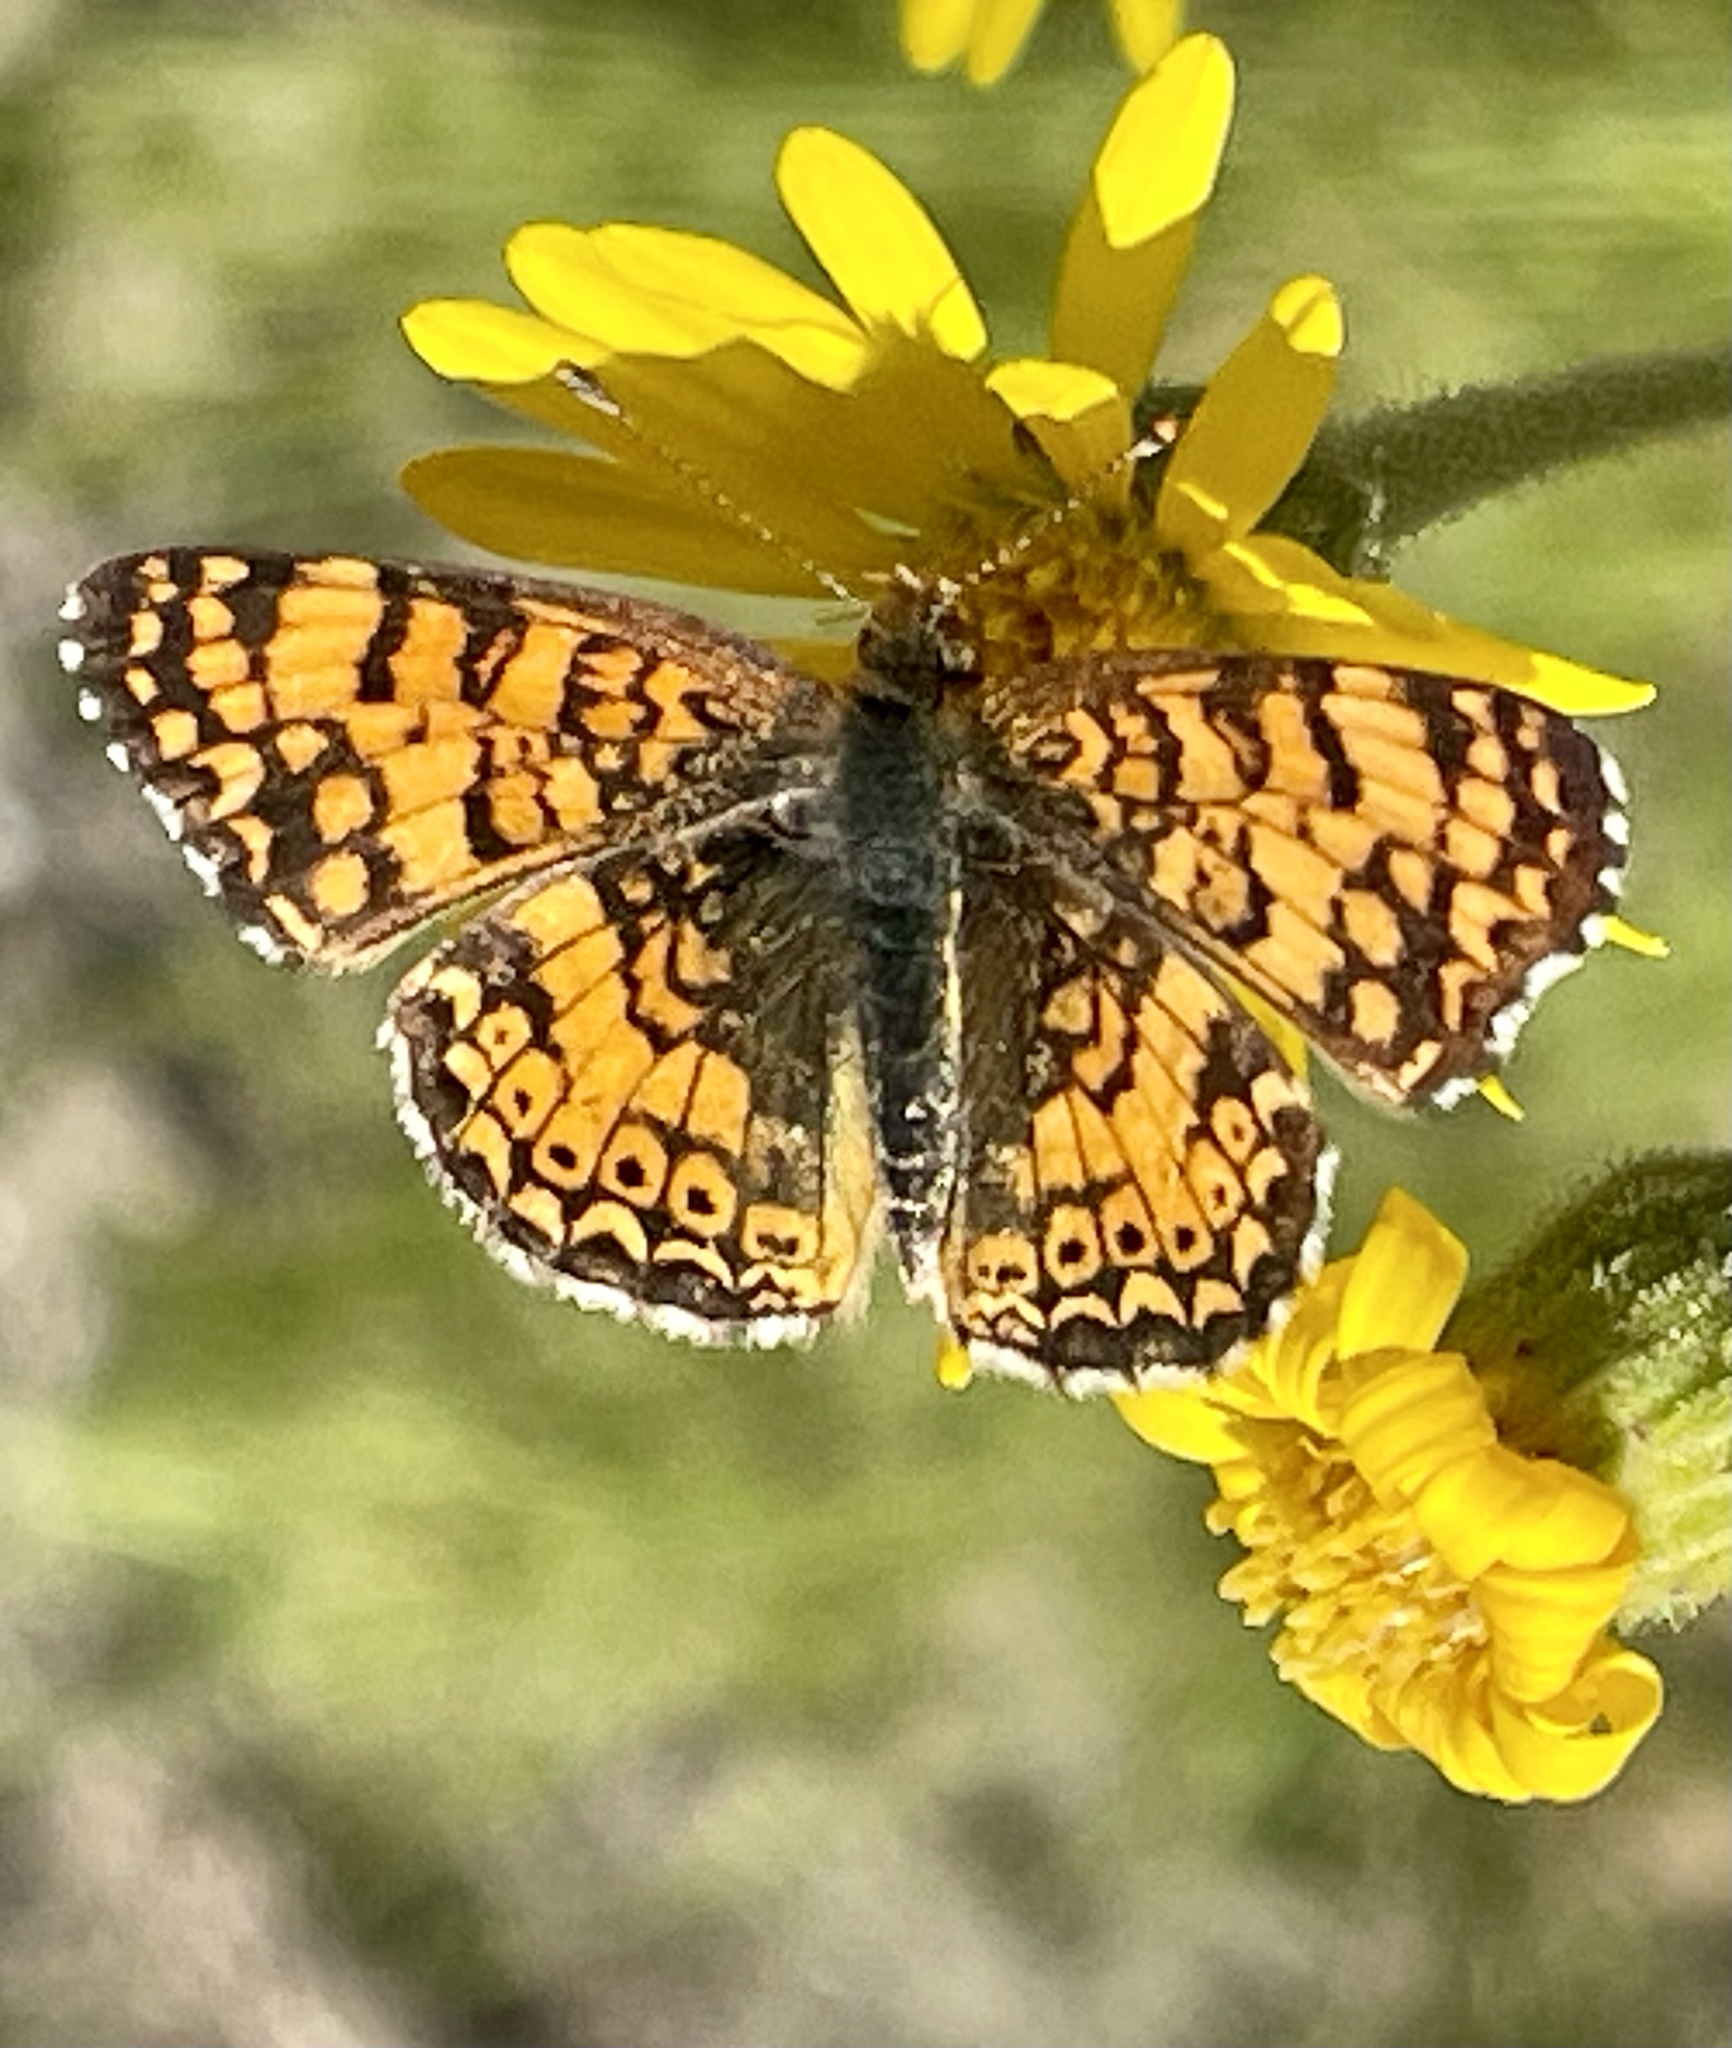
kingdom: Animalia
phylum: Arthropoda
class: Insecta
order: Lepidoptera
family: Nymphalidae
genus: Eresia
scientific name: Eresia aveyrona
